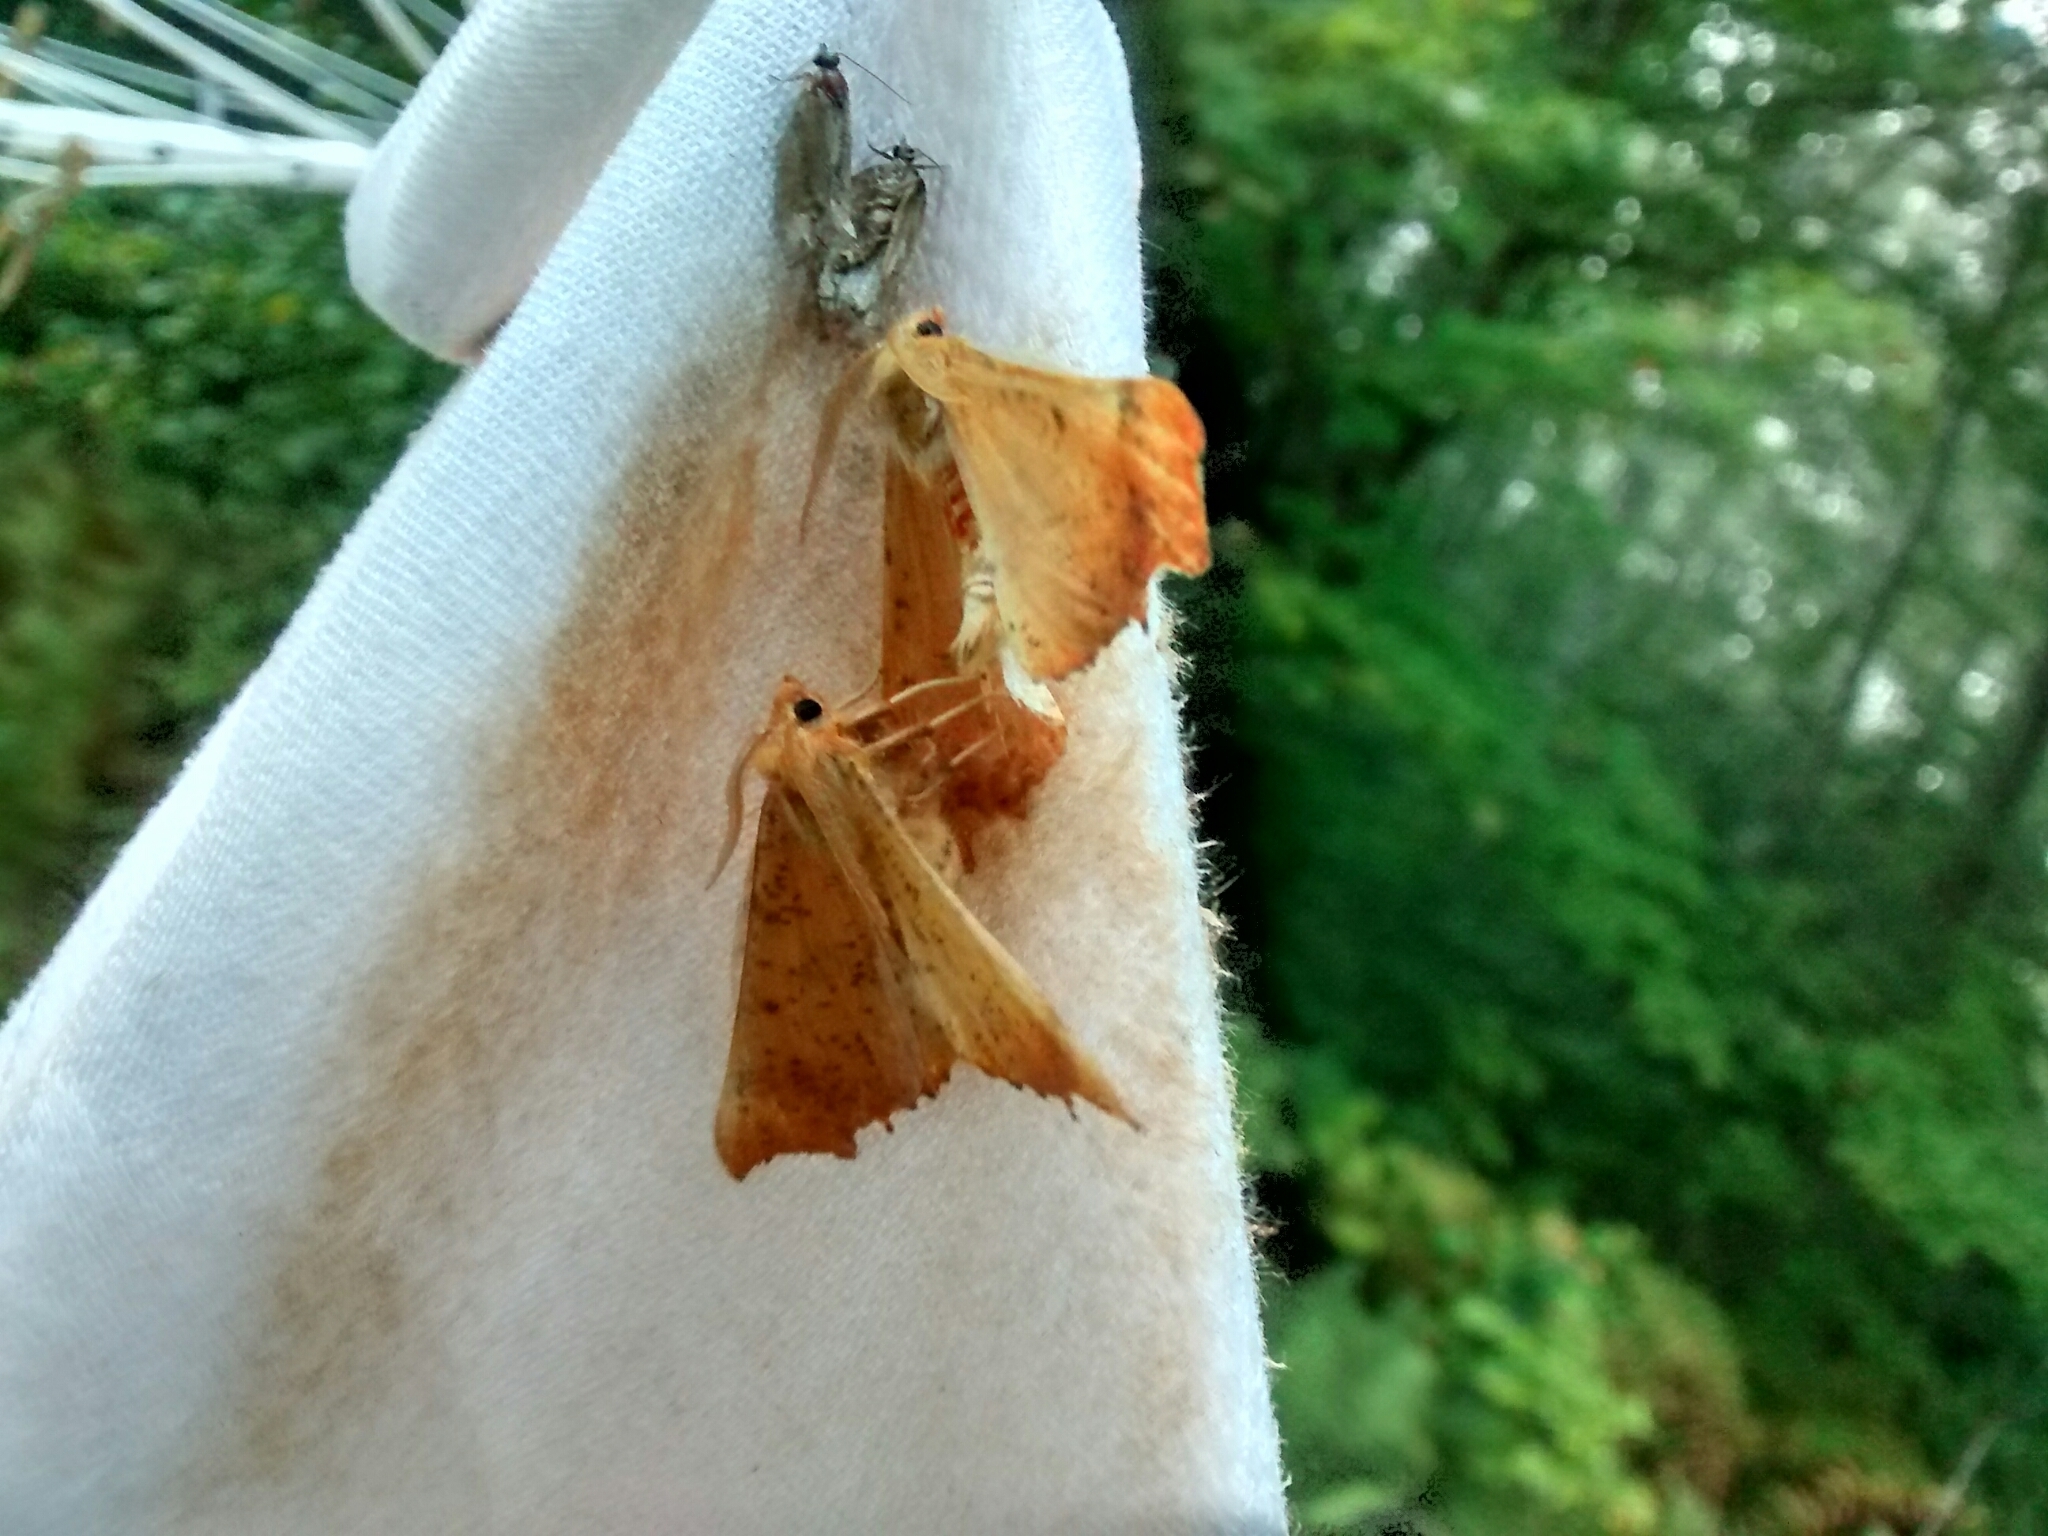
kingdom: Animalia
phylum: Arthropoda
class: Insecta
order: Lepidoptera
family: Geometridae
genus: Ennomos
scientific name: Ennomos magnaria
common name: Maple spanworm
